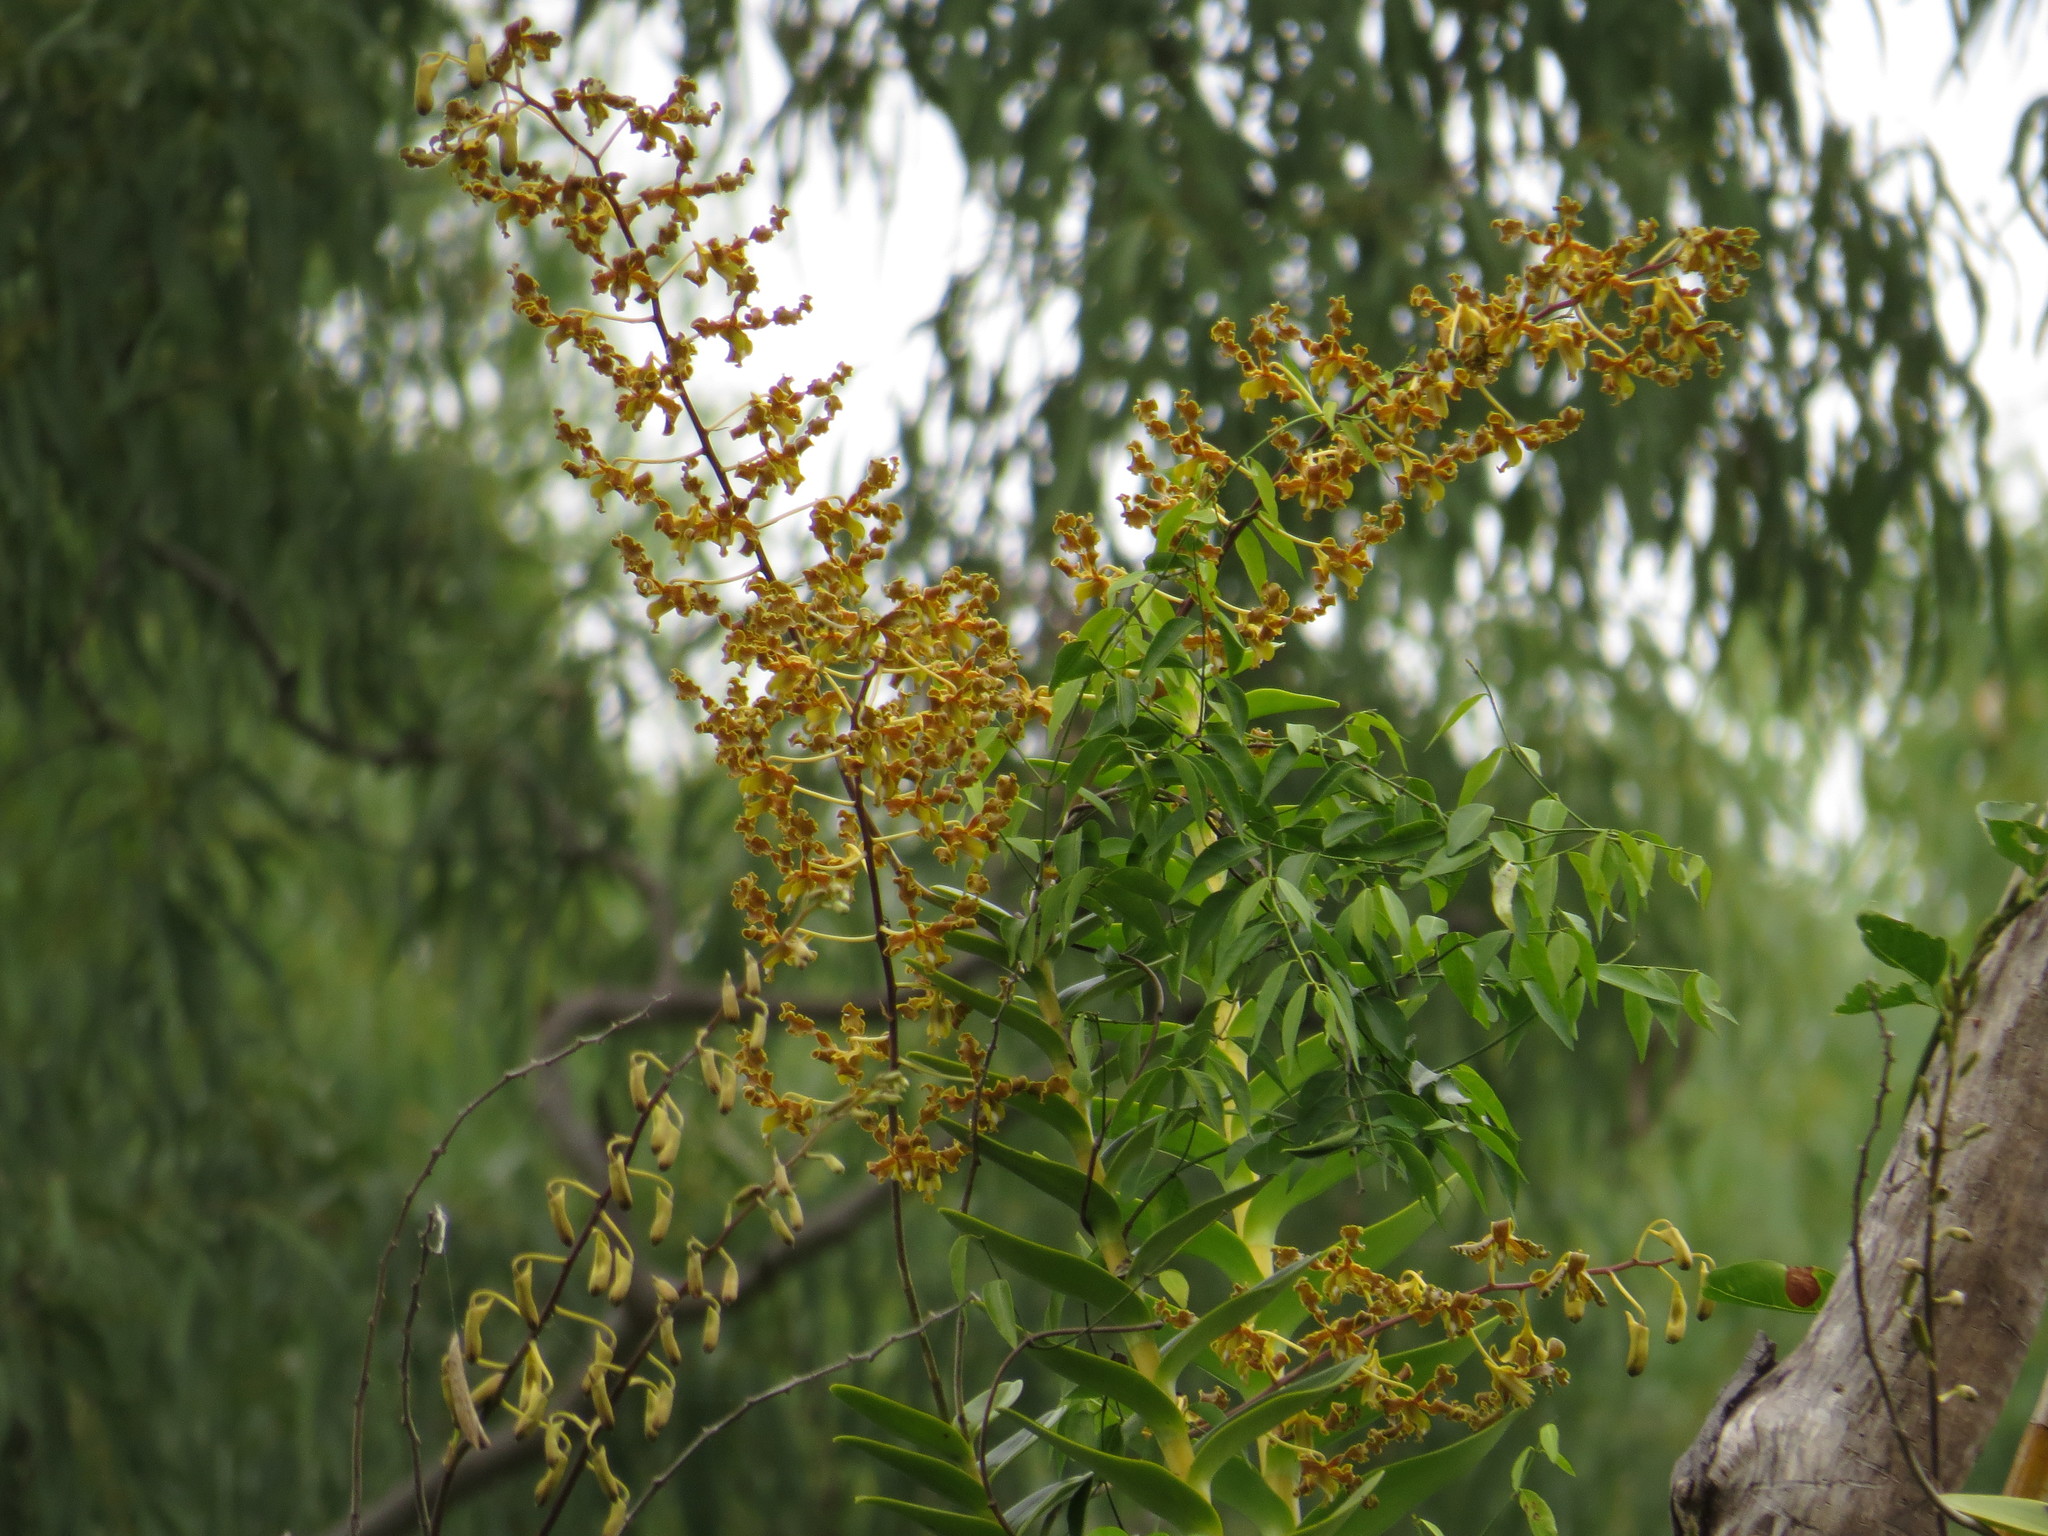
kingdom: Plantae
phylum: Tracheophyta
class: Liliopsida
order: Asparagales
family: Orchidaceae
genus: Dendrobium
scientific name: Dendrobium discolor
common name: Golden antler orchid
